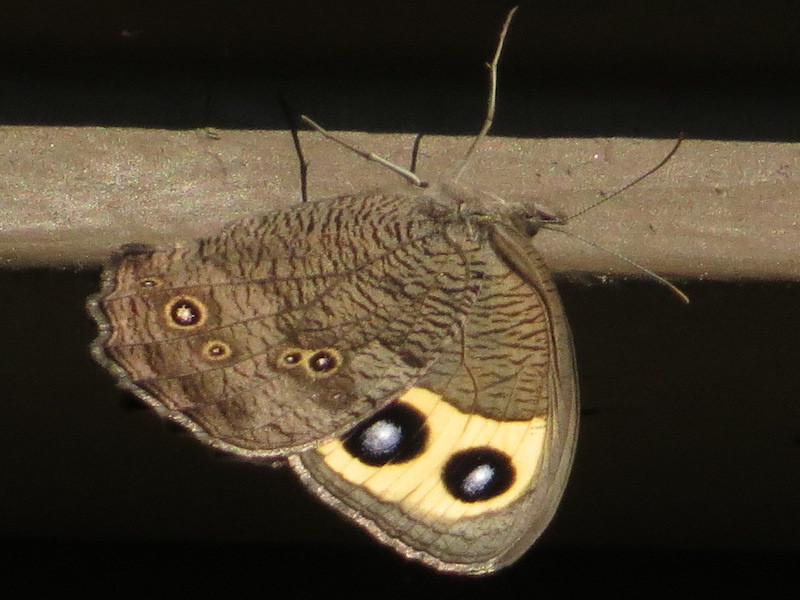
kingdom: Animalia
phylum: Arthropoda
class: Insecta
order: Lepidoptera
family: Nymphalidae
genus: Cercyonis
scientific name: Cercyonis pegala
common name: Common wood-nymph
